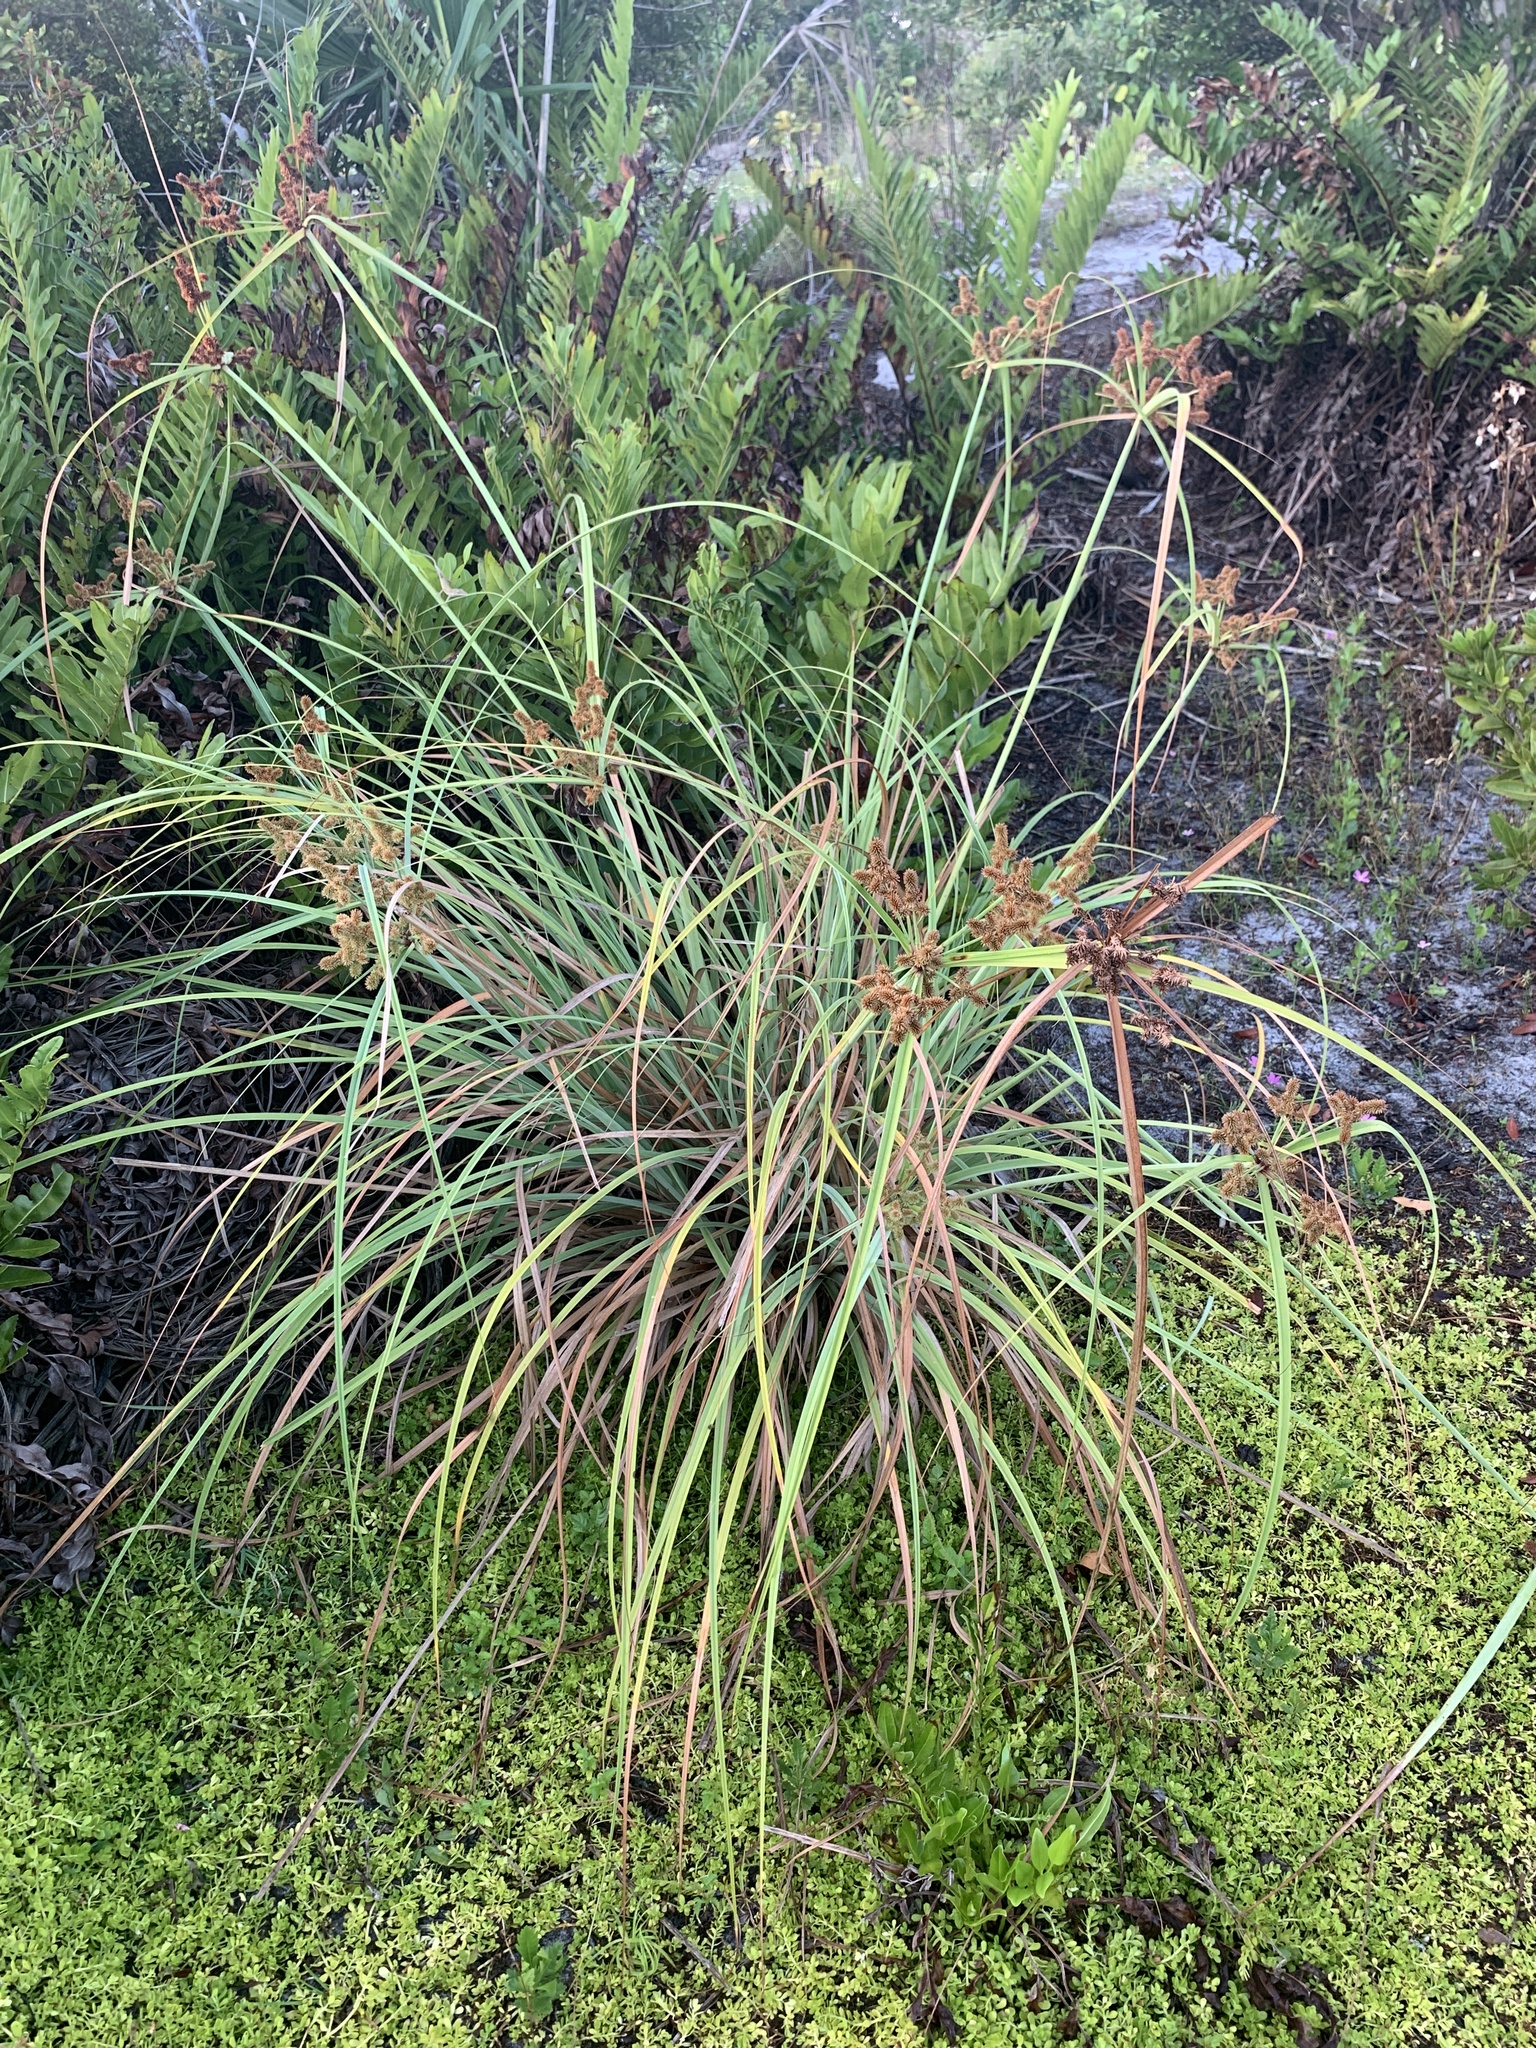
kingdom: Plantae
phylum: Tracheophyta
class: Liliopsida
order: Poales
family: Cyperaceae
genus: Cyperus
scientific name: Cyperus ligularis
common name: Swamp flat sedge
